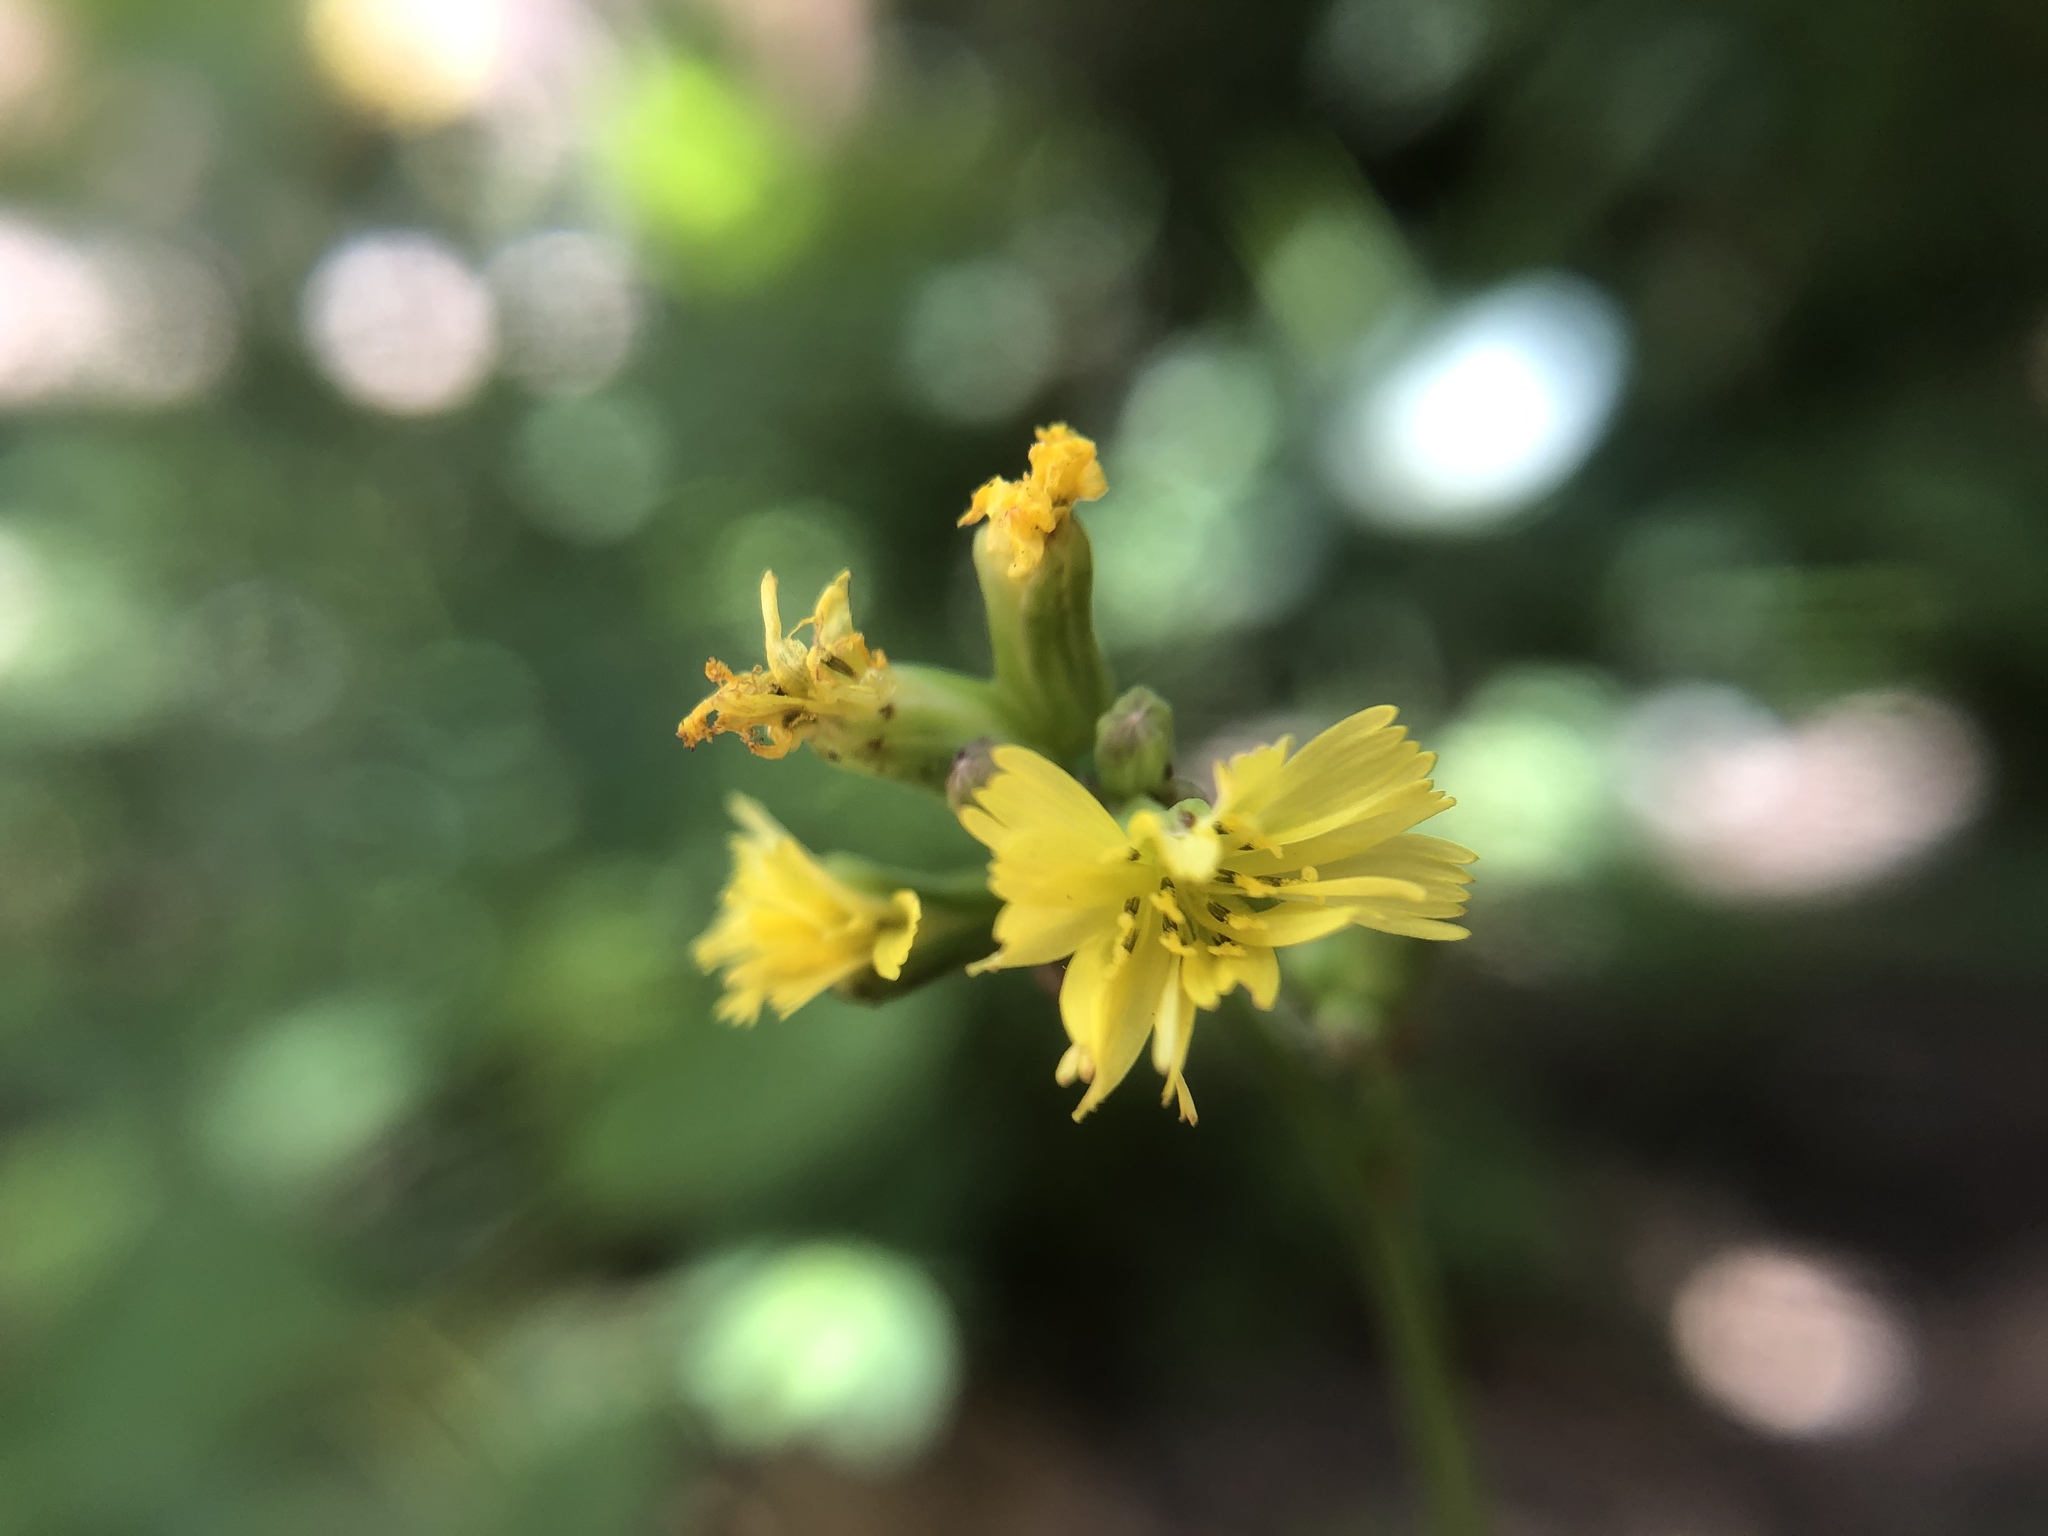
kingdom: Plantae
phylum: Tracheophyta
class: Magnoliopsida
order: Asterales
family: Asteraceae
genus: Youngia
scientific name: Youngia japonica
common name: Oriental false hawksbeard
